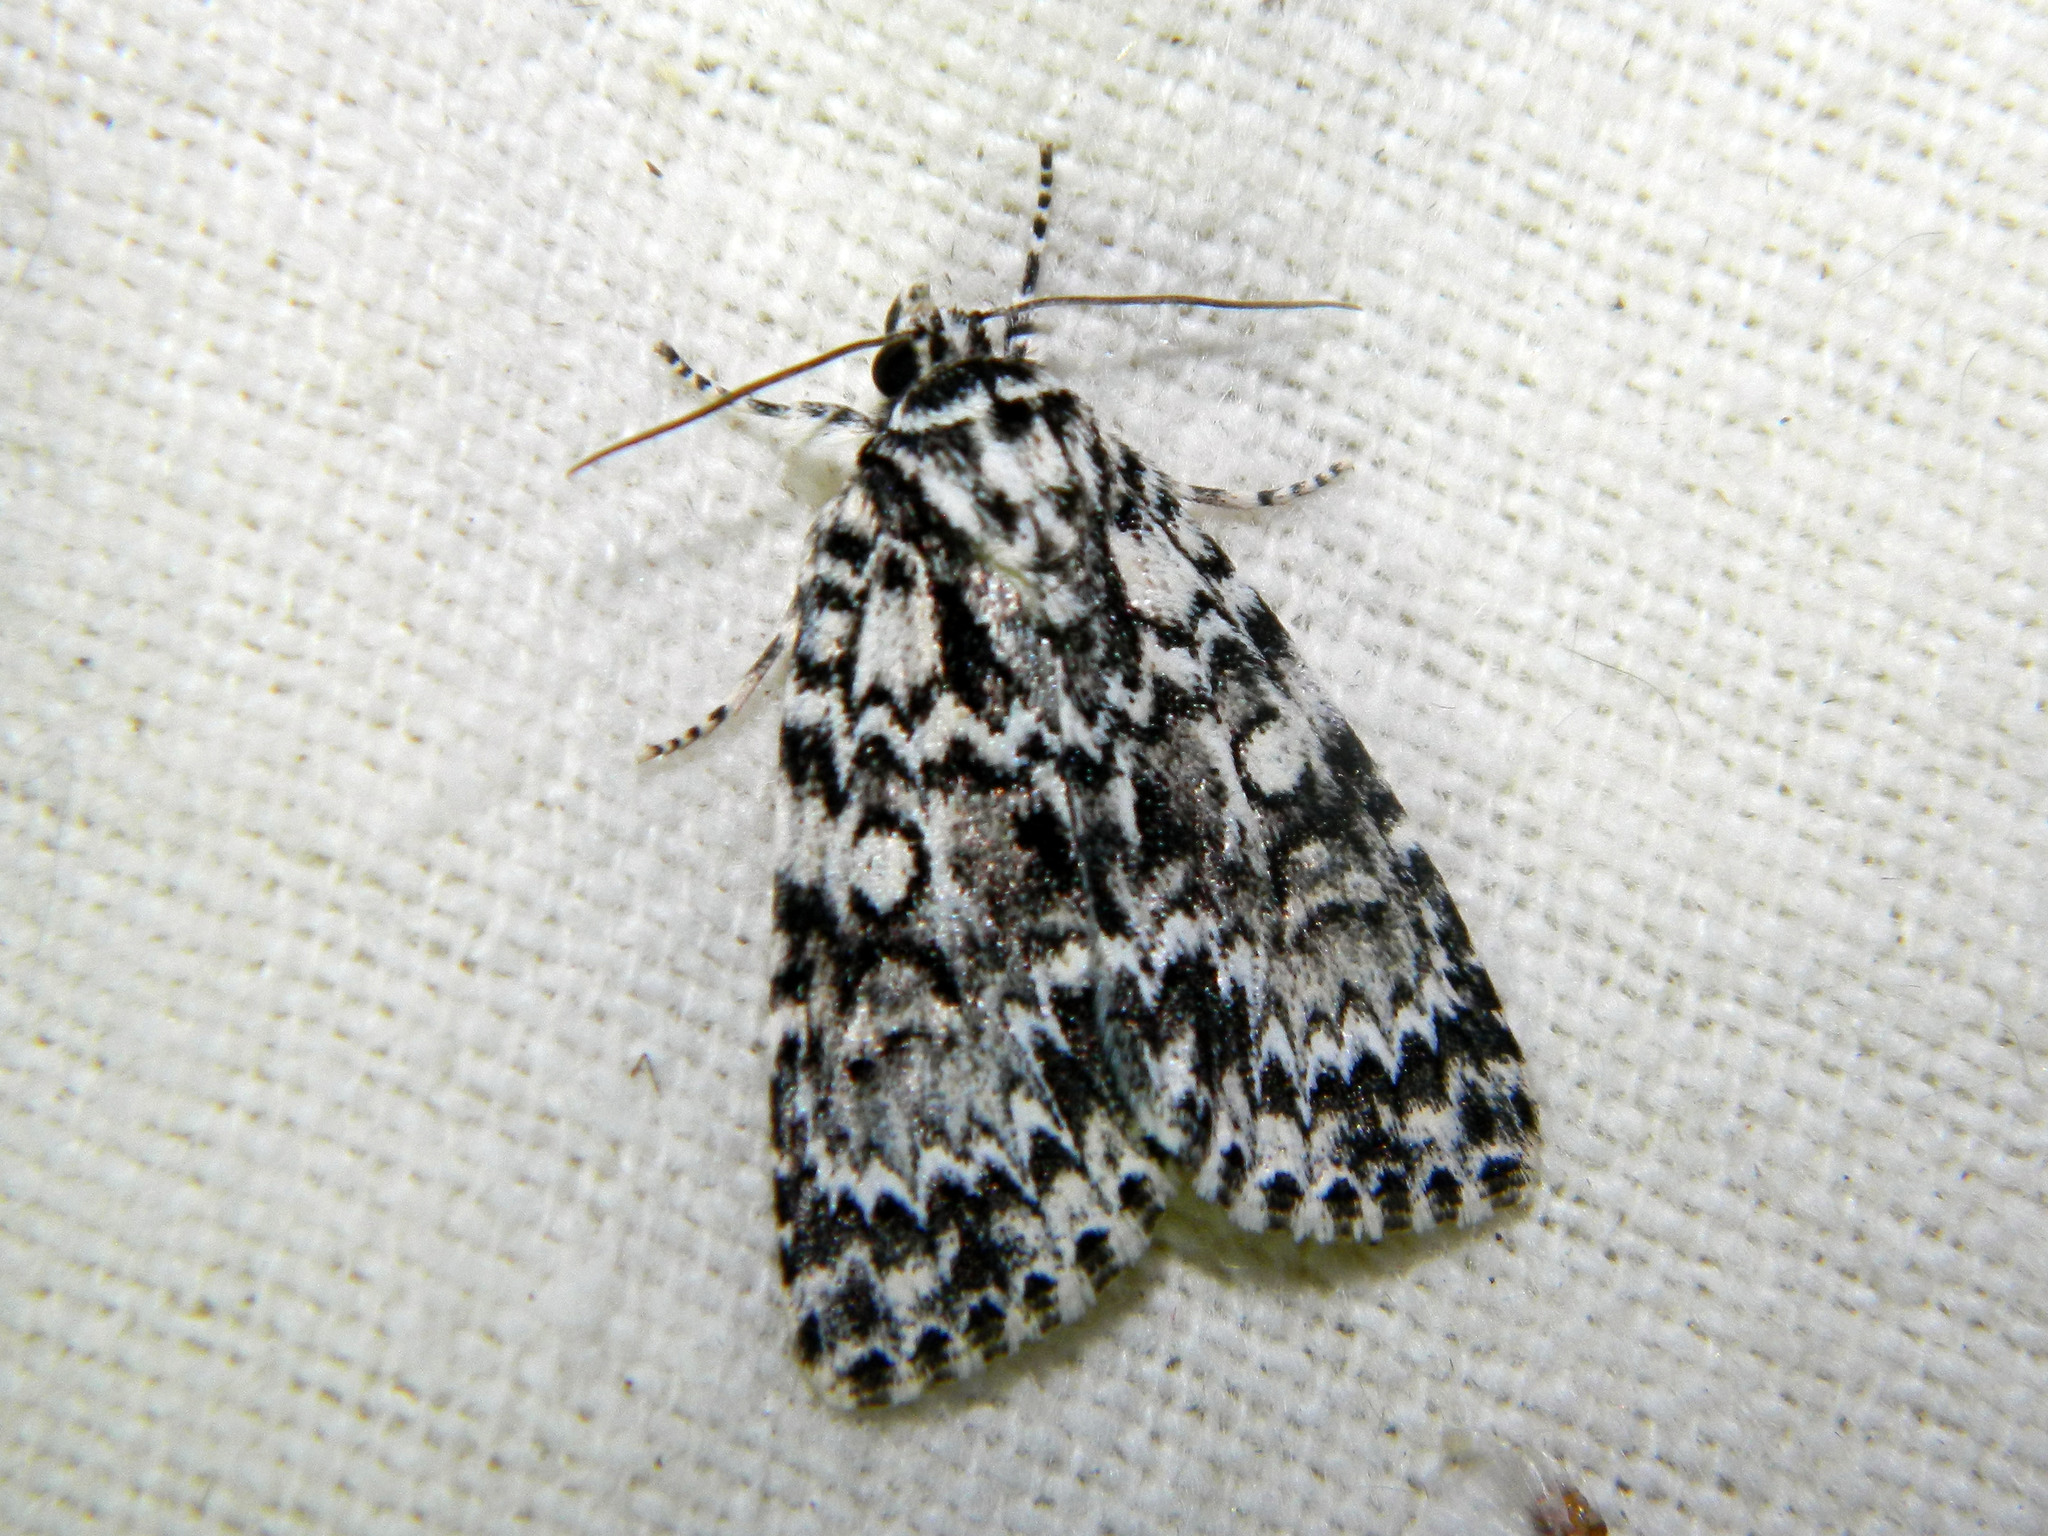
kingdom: Animalia
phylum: Arthropoda
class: Insecta
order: Lepidoptera
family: Noctuidae
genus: Acronicta
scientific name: Acronicta fragilis
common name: Fragile dagger
